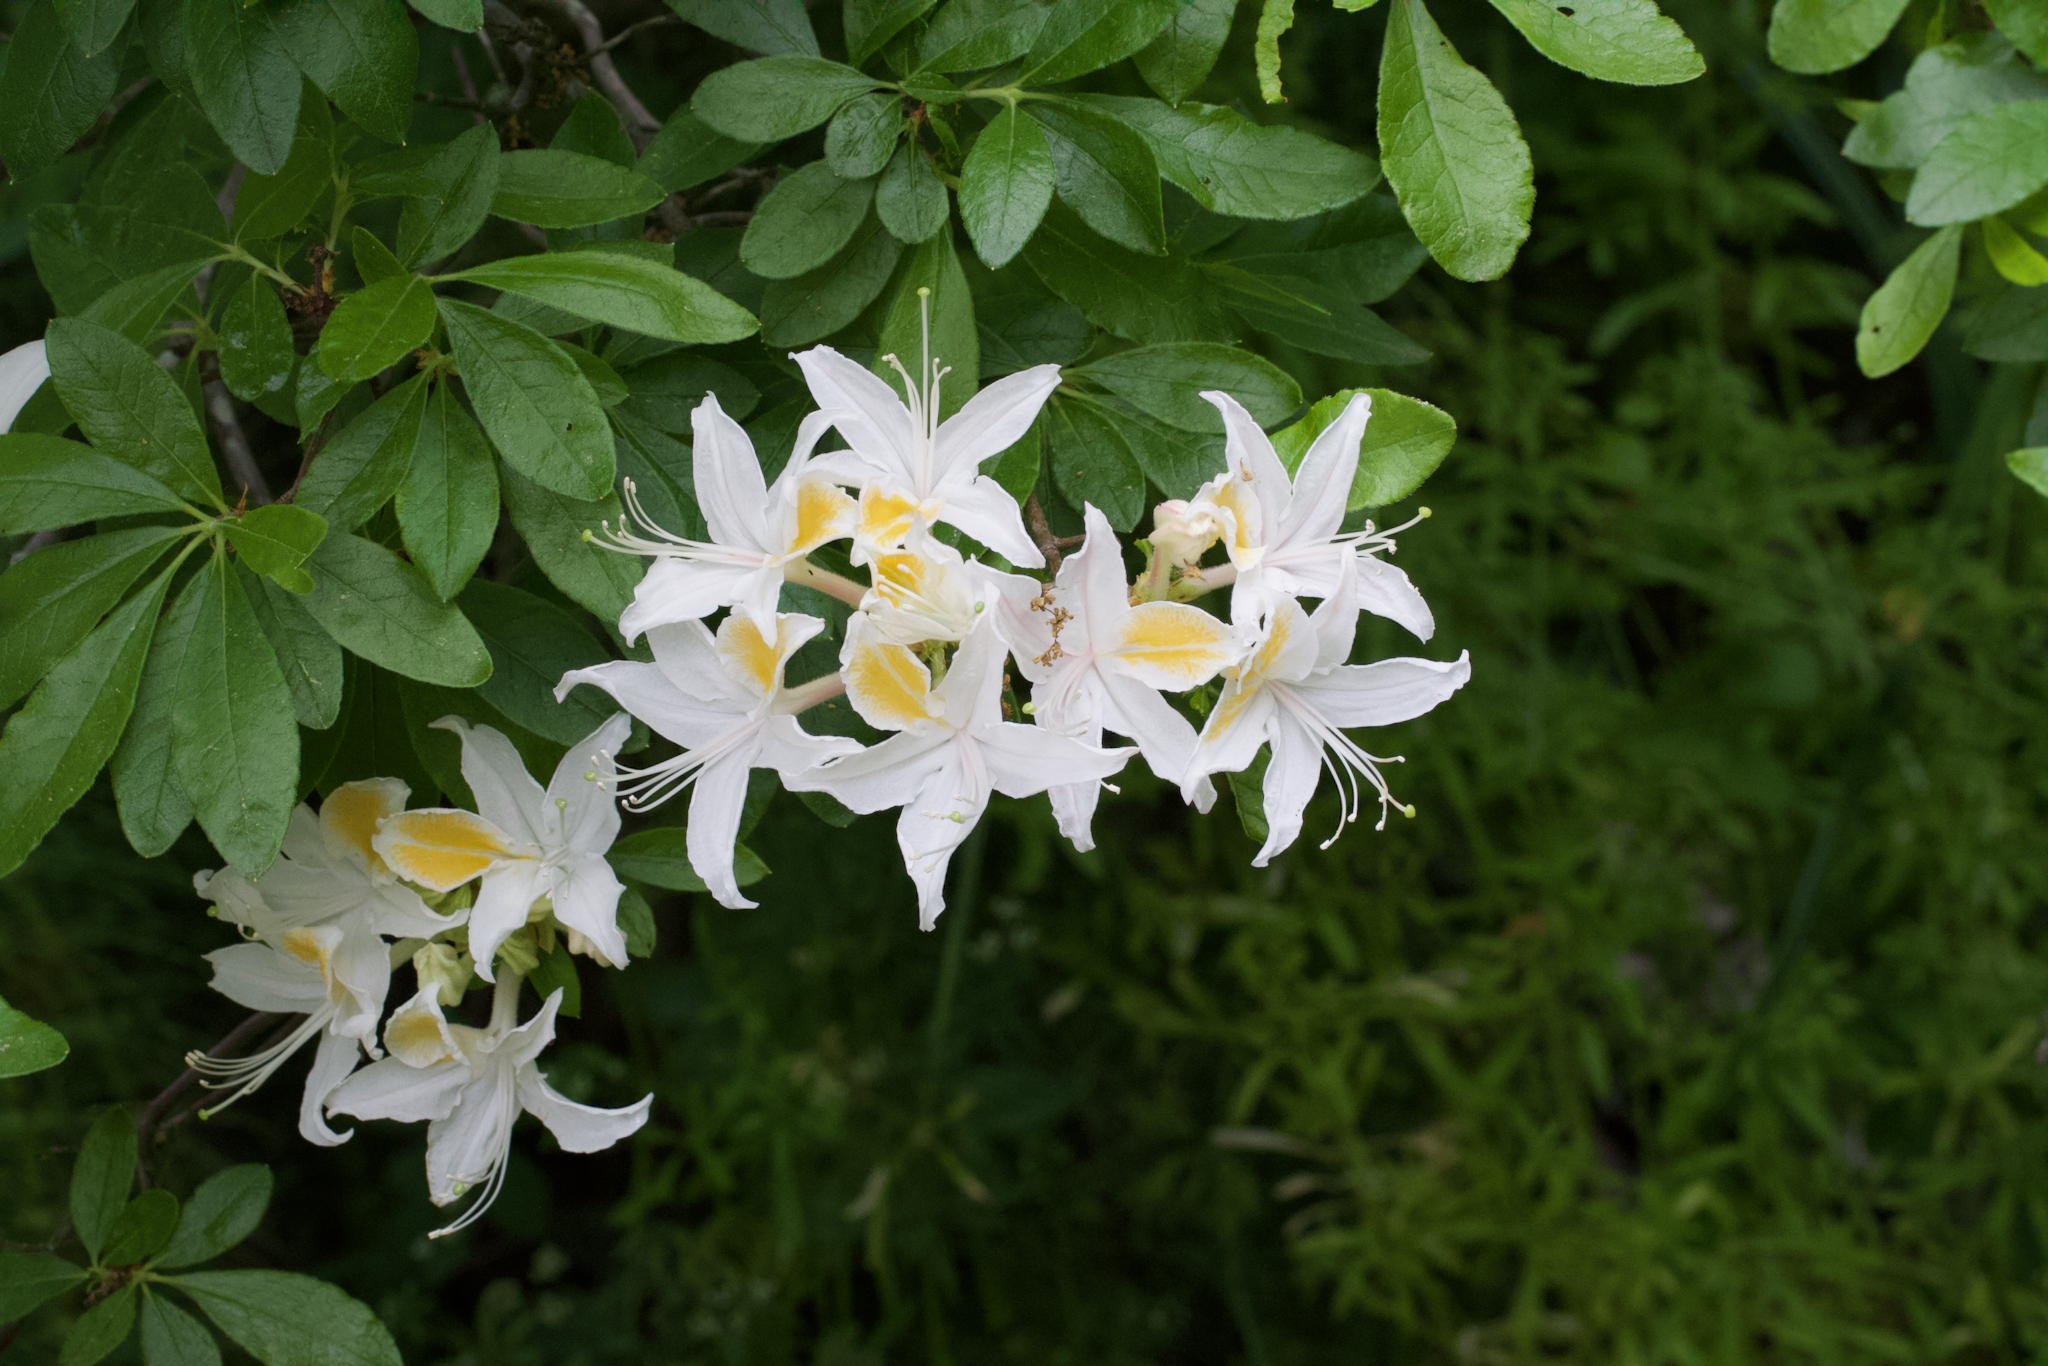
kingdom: Plantae
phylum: Tracheophyta
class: Magnoliopsida
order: Ericales
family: Ericaceae
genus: Rhododendron
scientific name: Rhododendron occidentale
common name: Western azalea
